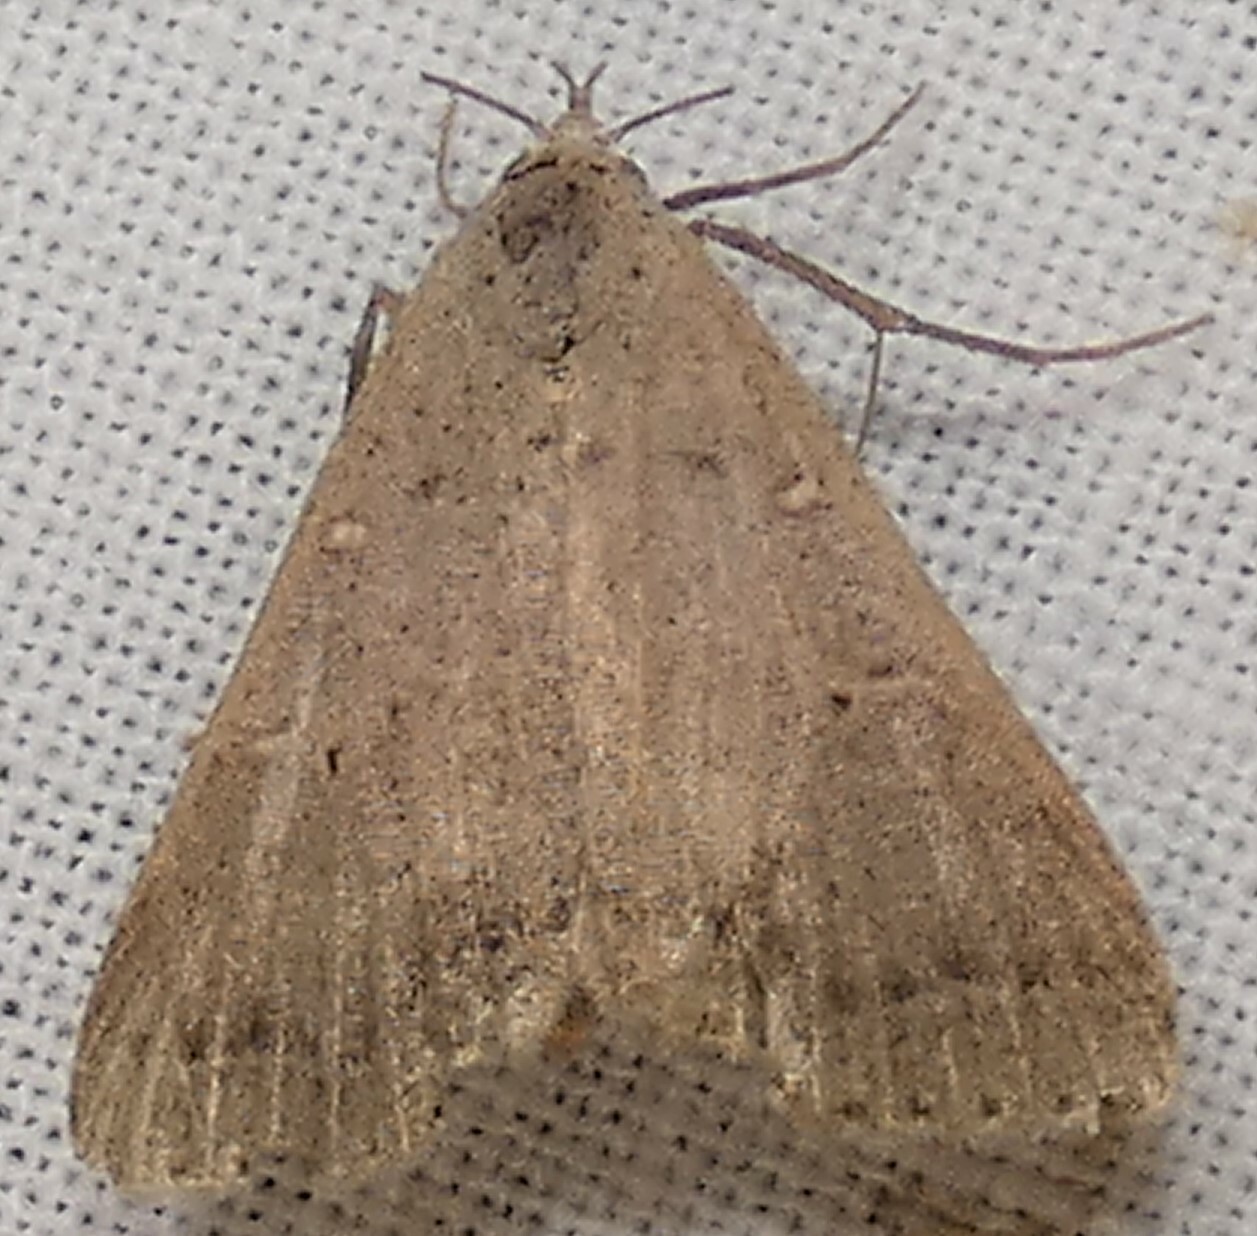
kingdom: Animalia
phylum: Arthropoda
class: Insecta
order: Lepidoptera
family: Erebidae
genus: Bleptina
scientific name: Bleptina caradrinalis
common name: Bent-winged owlet
